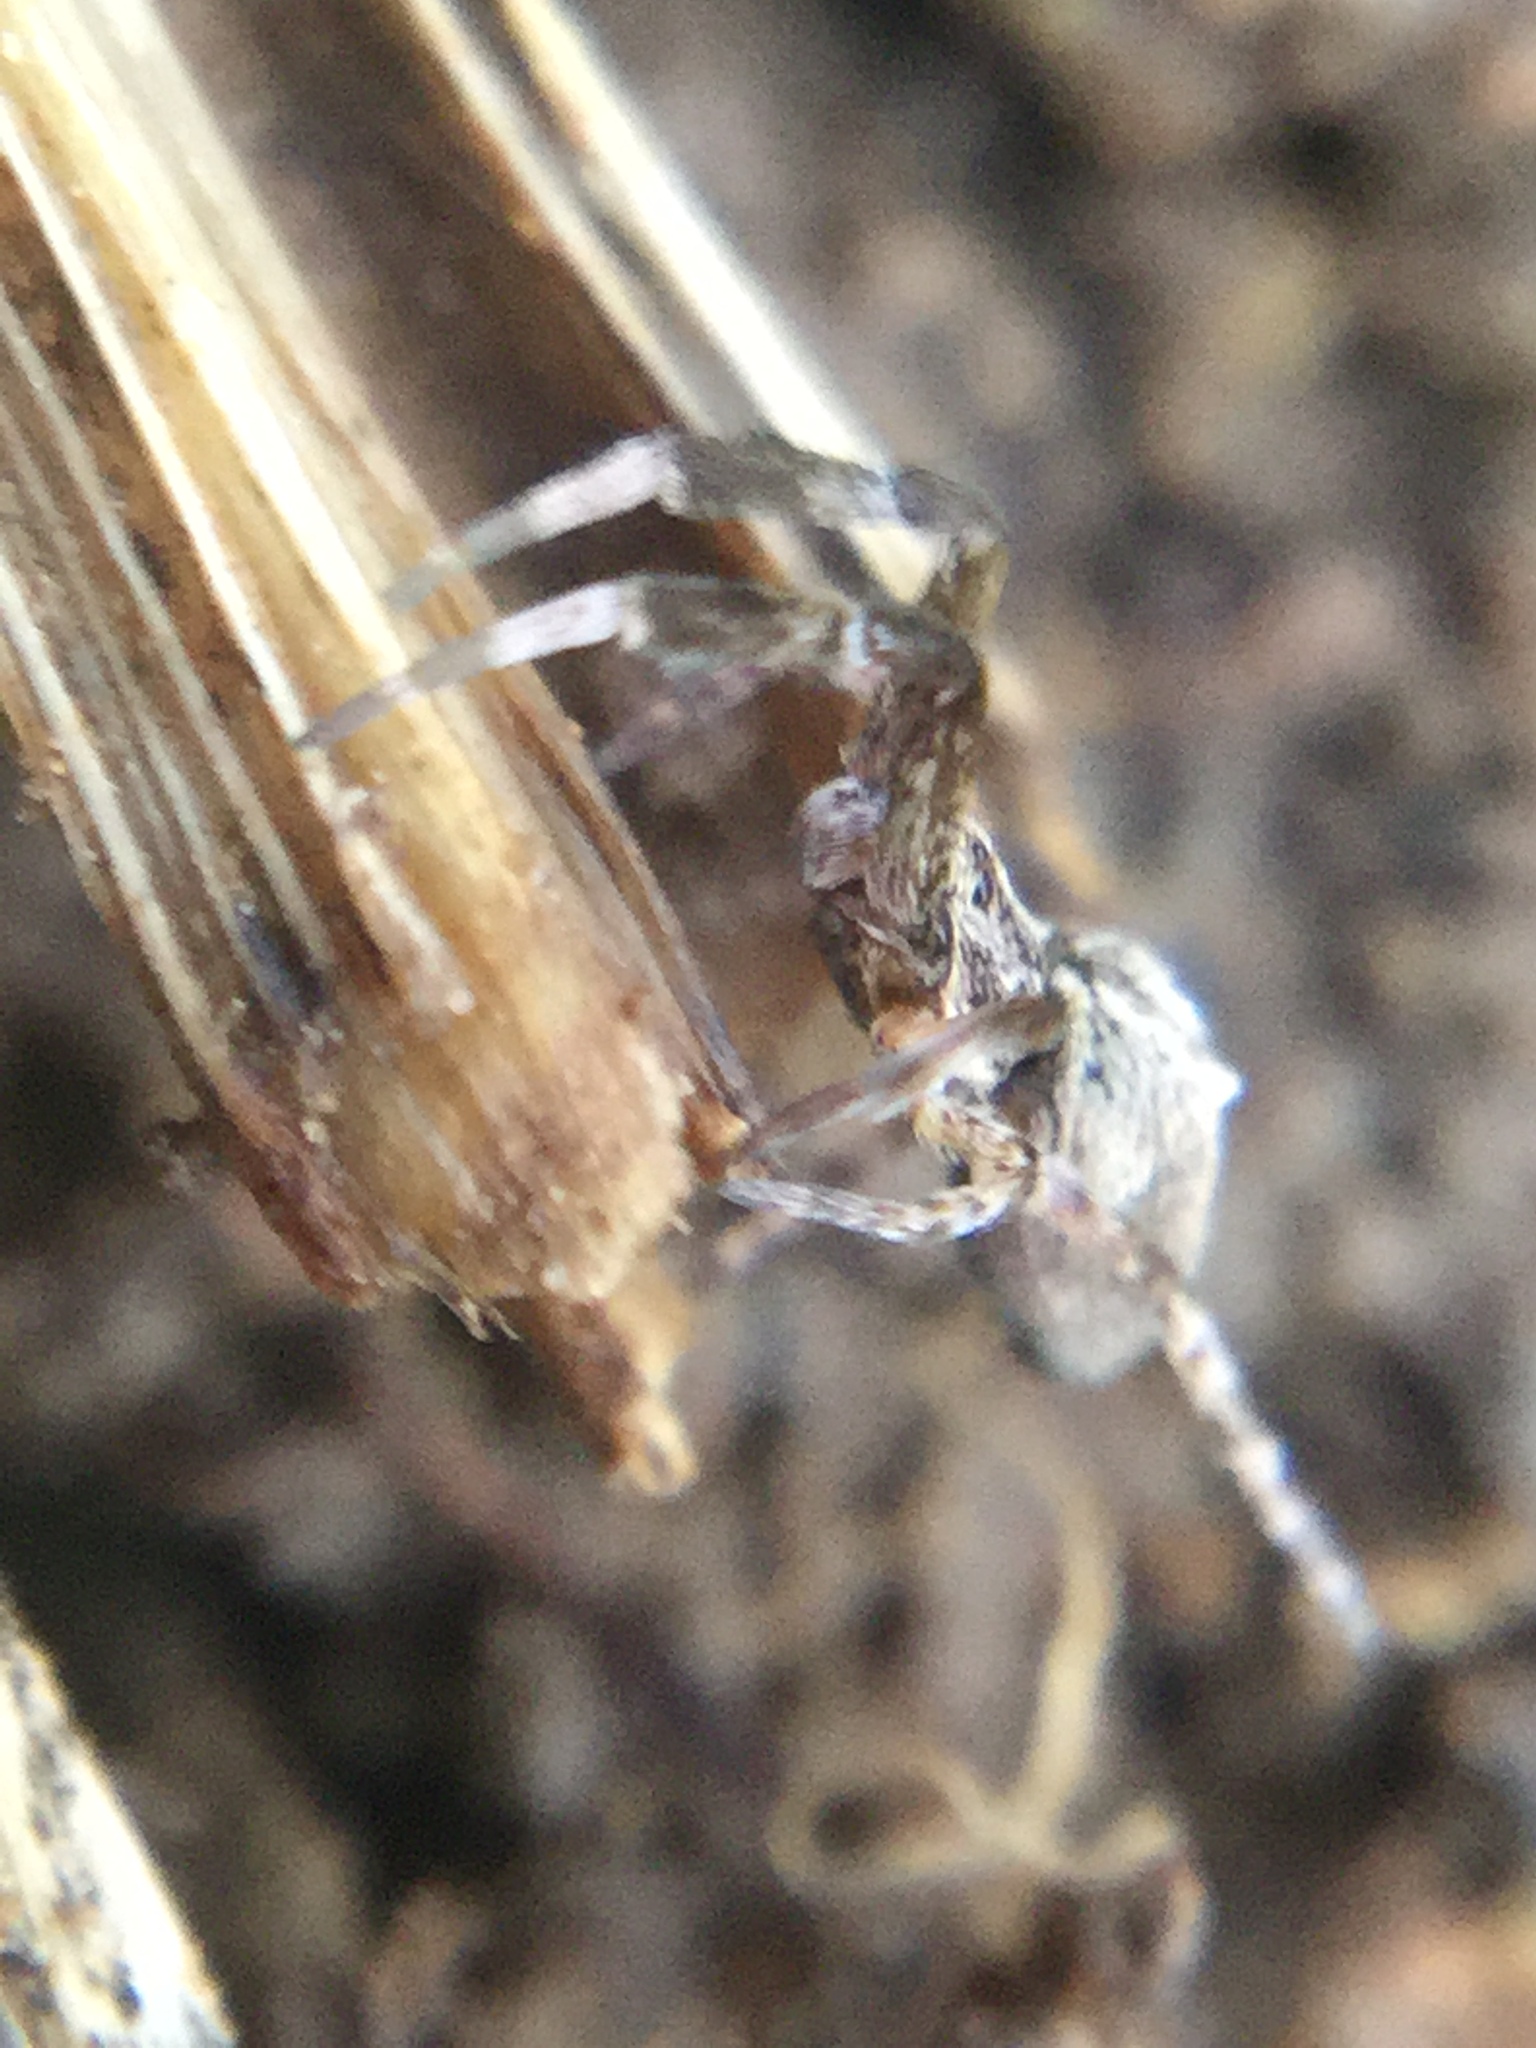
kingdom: Animalia
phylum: Arthropoda
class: Arachnida
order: Araneae
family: Uloboridae
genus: Uloborus
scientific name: Uloborus glomosus
